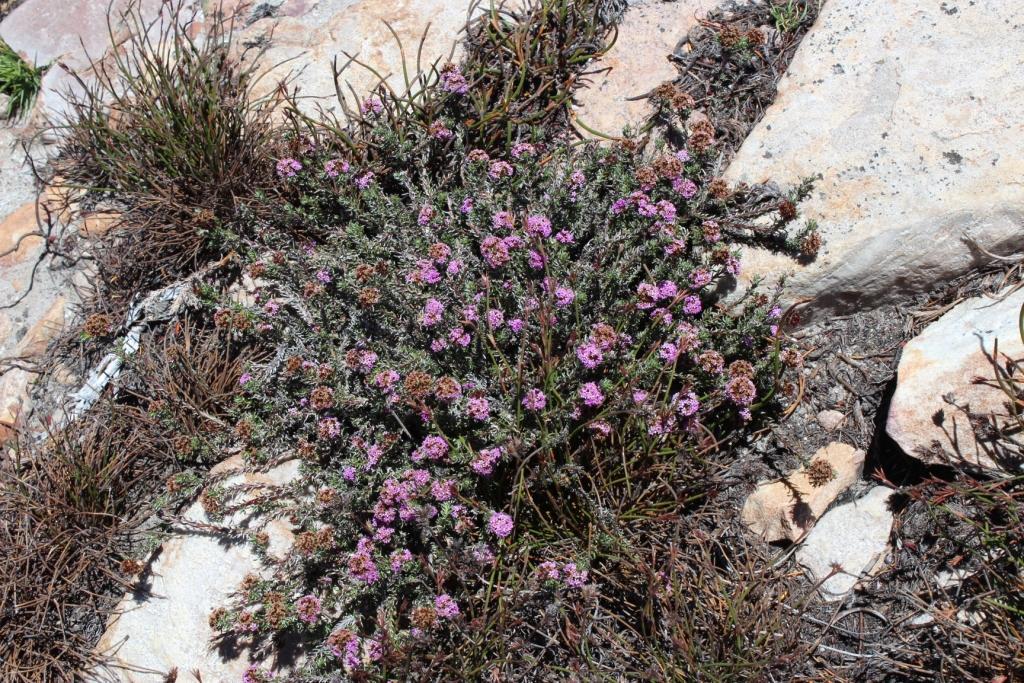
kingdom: Plantae
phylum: Tracheophyta
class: Magnoliopsida
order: Asterales
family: Asteraceae
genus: Stoebe
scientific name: Stoebe montana
